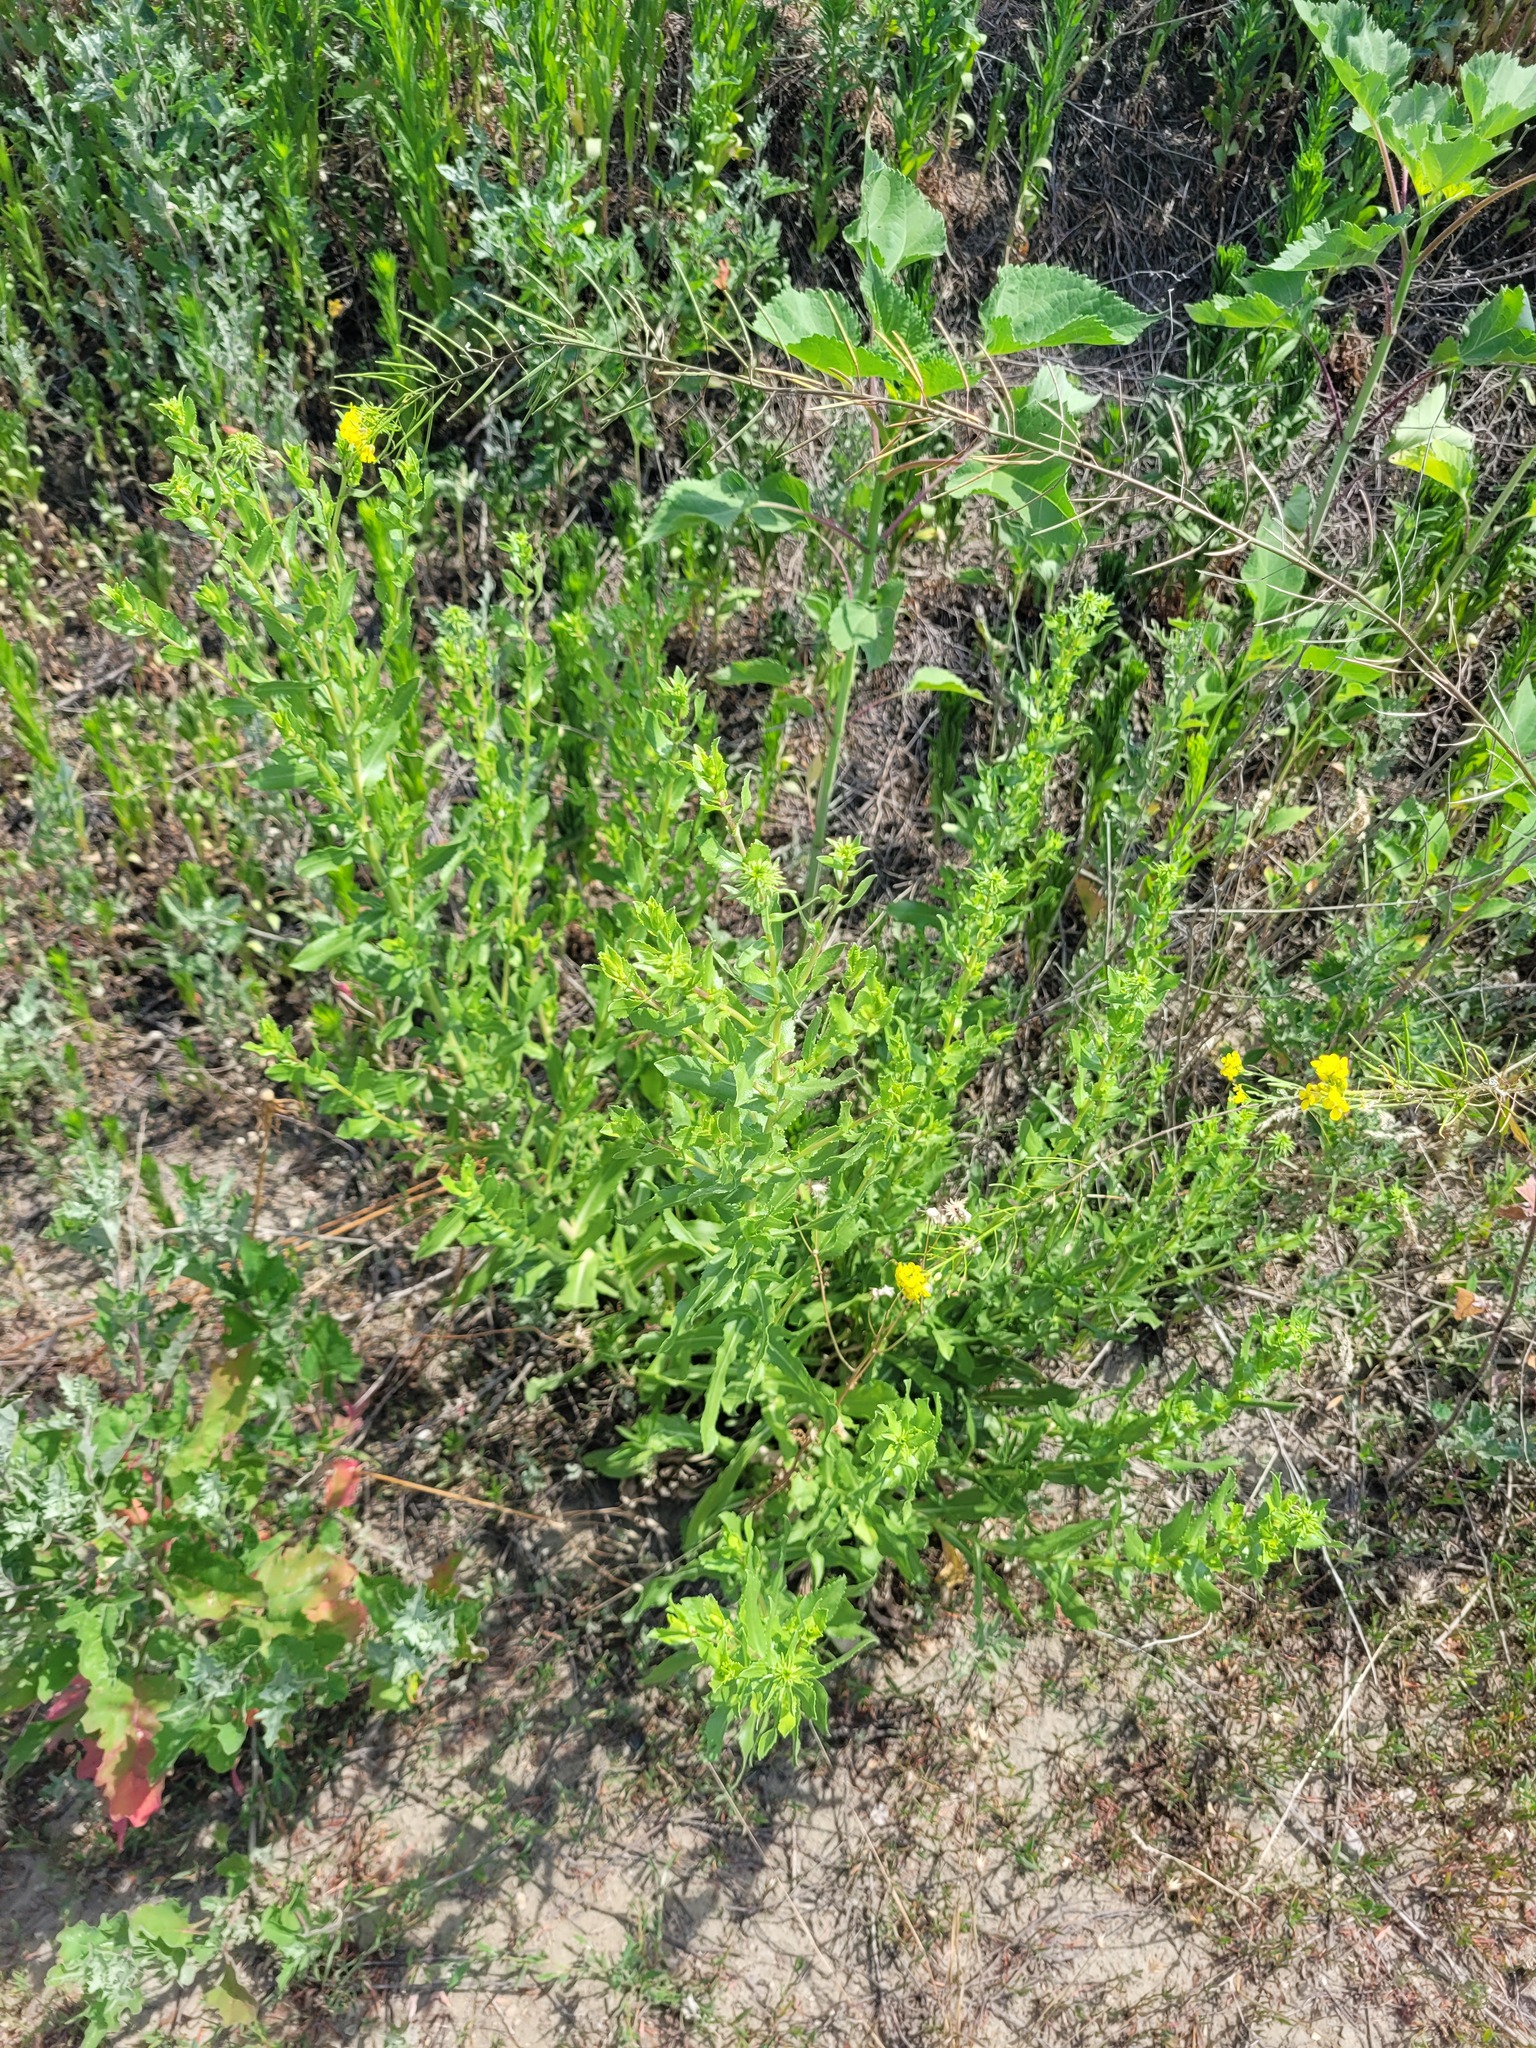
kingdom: Plantae
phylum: Tracheophyta
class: Magnoliopsida
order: Asterales
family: Asteraceae
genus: Grindelia
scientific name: Grindelia squarrosa
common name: Curly-cup gumweed
